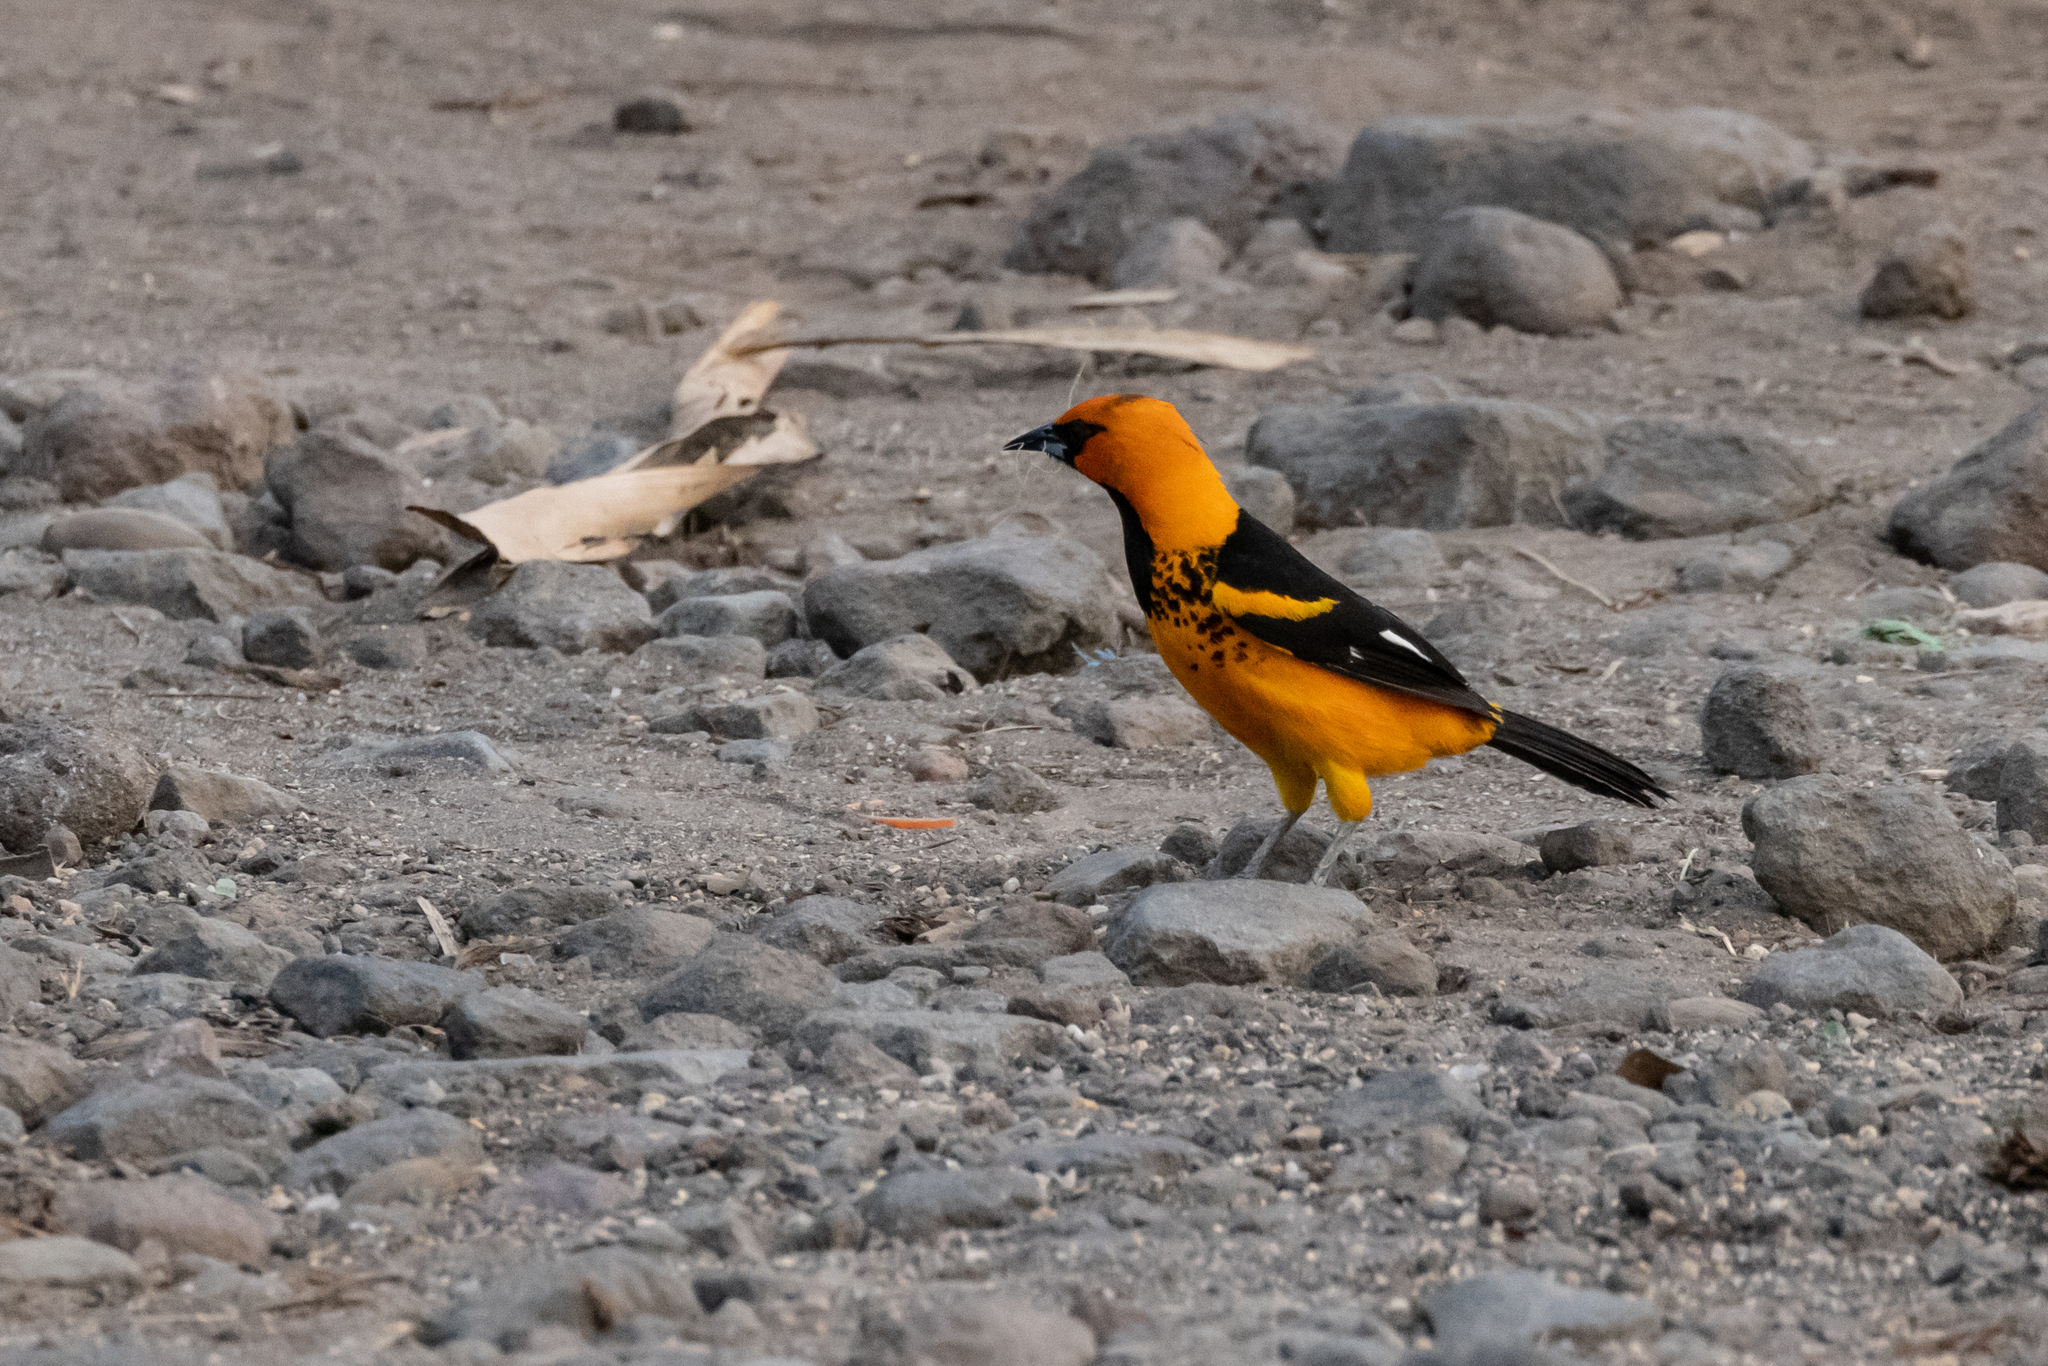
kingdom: Animalia
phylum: Chordata
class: Aves
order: Passeriformes
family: Icteridae
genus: Icterus
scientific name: Icterus pectoralis
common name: Spot-breasted oriole
